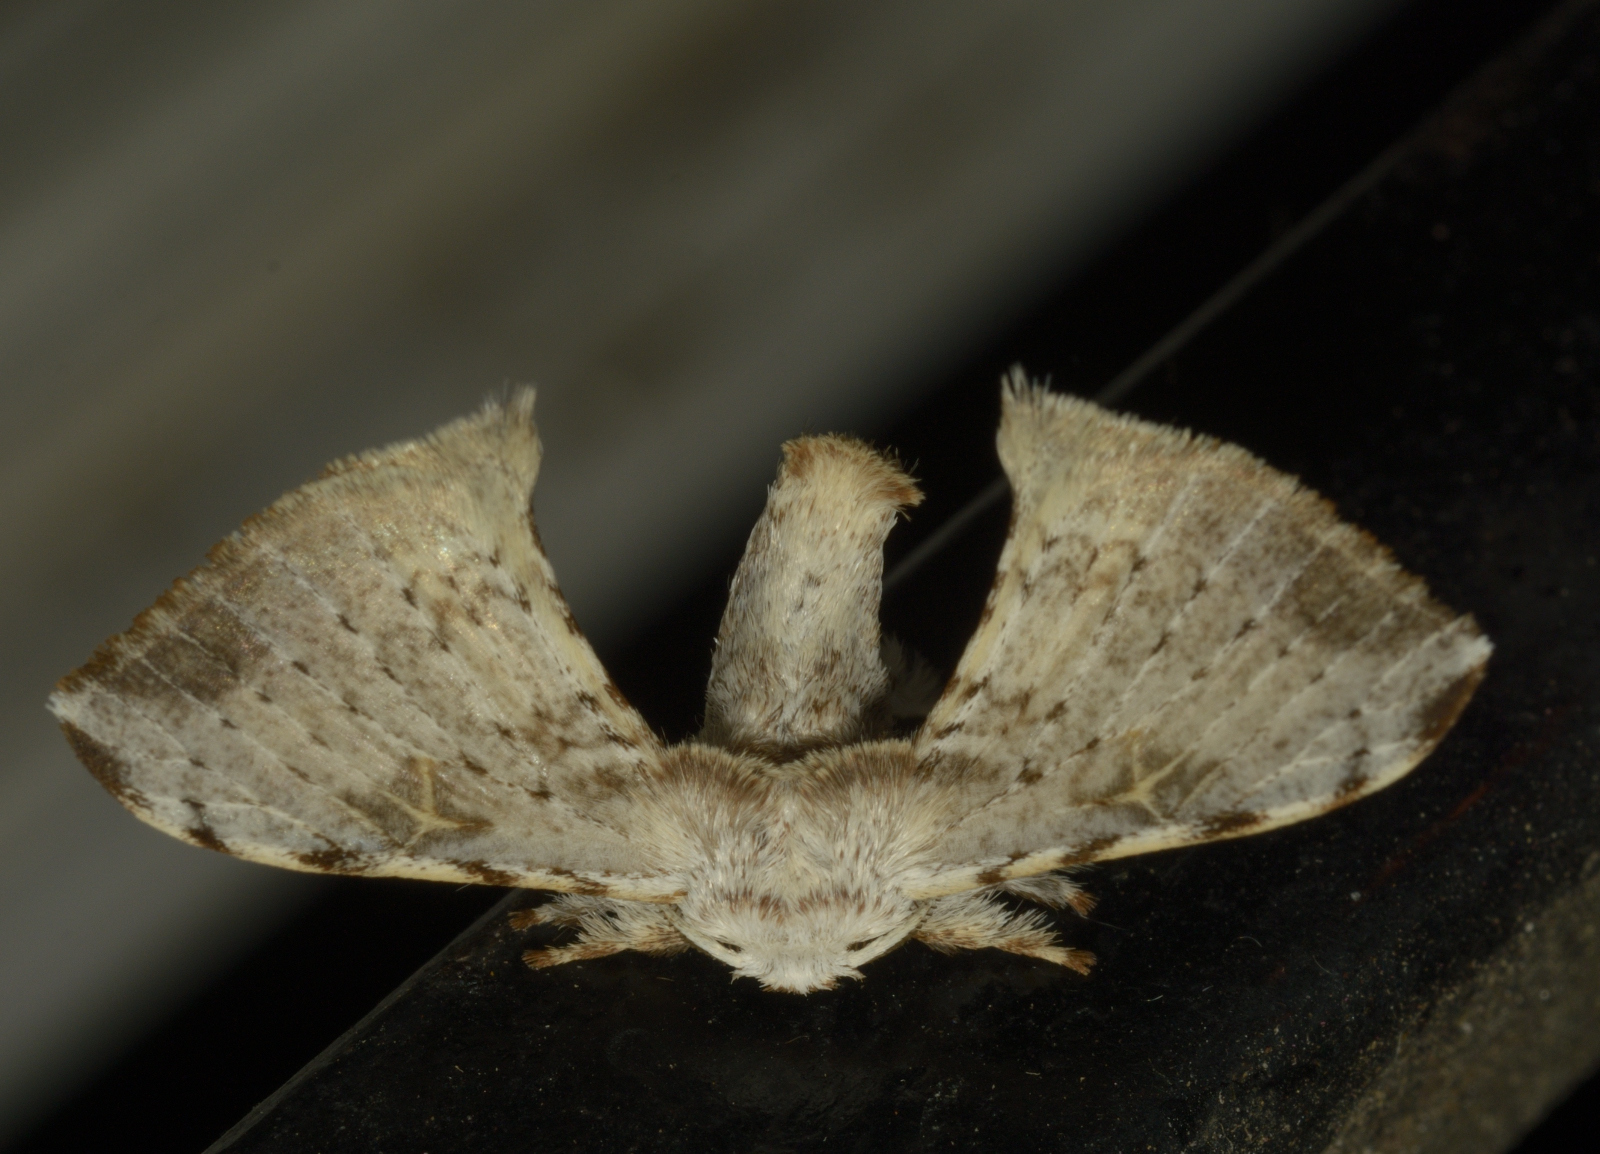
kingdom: Animalia
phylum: Arthropoda
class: Insecta
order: Lepidoptera
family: Bombycidae
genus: Ocinara
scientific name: Ocinara albicollis
